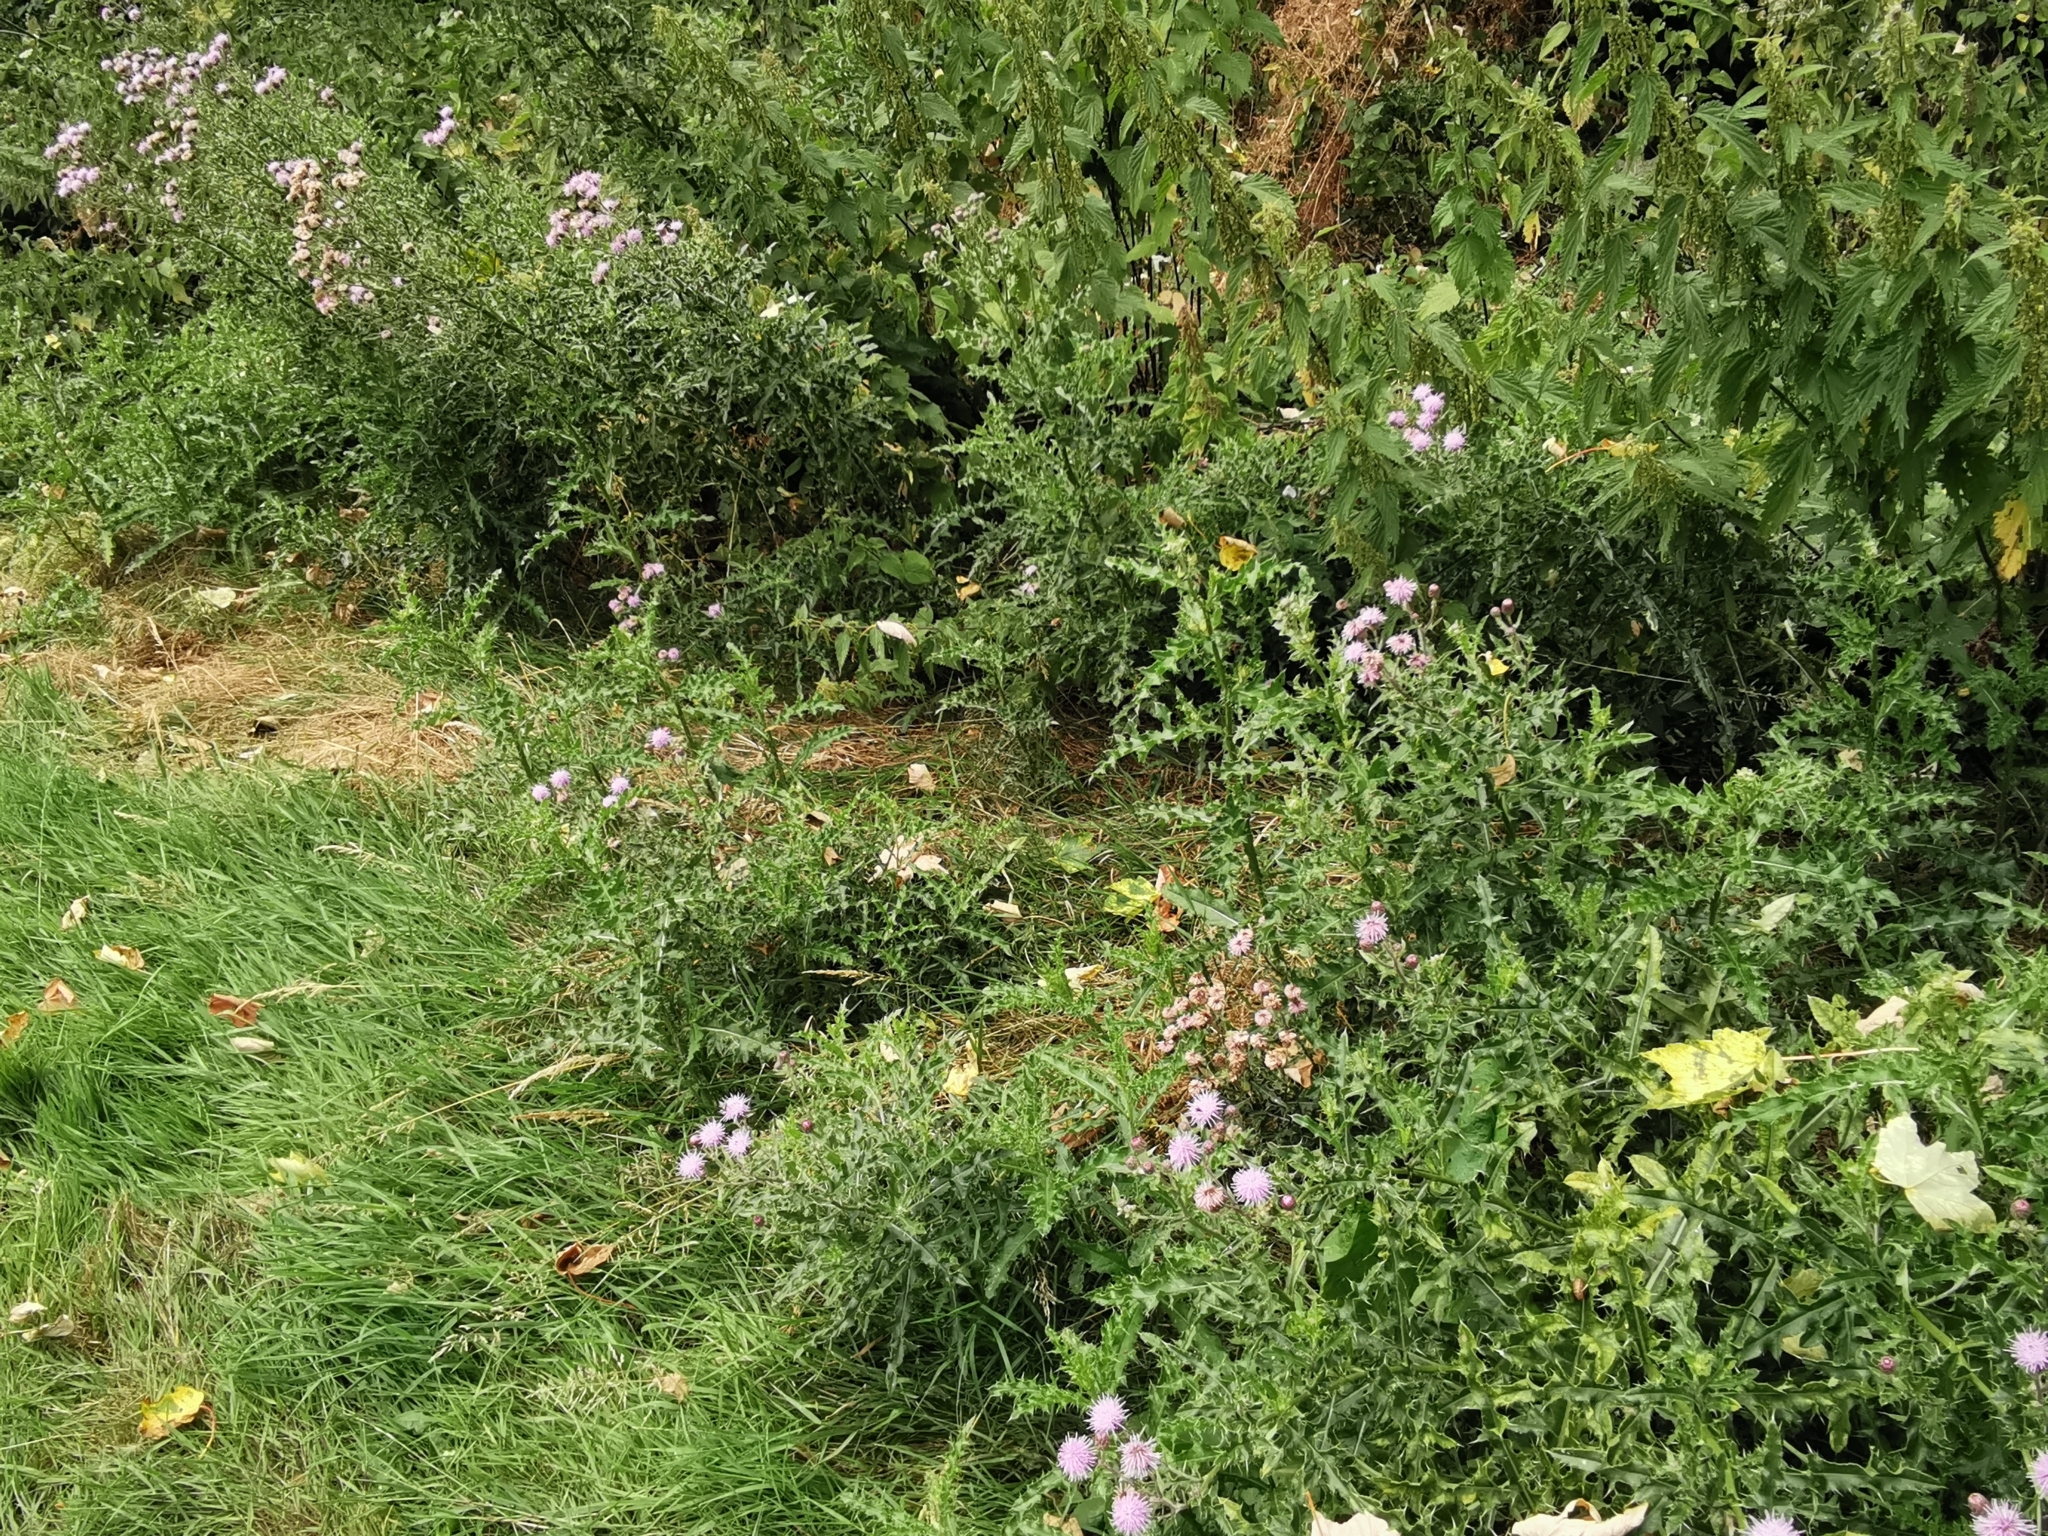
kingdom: Plantae
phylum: Tracheophyta
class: Magnoliopsida
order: Asterales
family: Asteraceae
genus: Cirsium
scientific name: Cirsium arvense
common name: Creeping thistle
